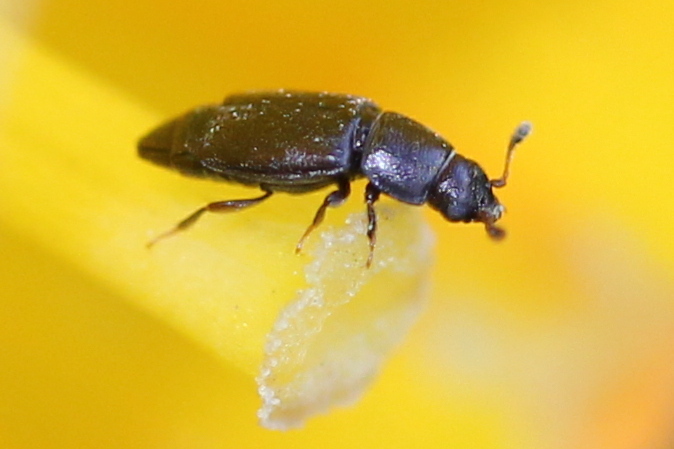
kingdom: Animalia
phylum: Arthropoda
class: Insecta
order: Coleoptera
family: Nitidulidae
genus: Carpophilus
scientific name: Carpophilus brachypterus
